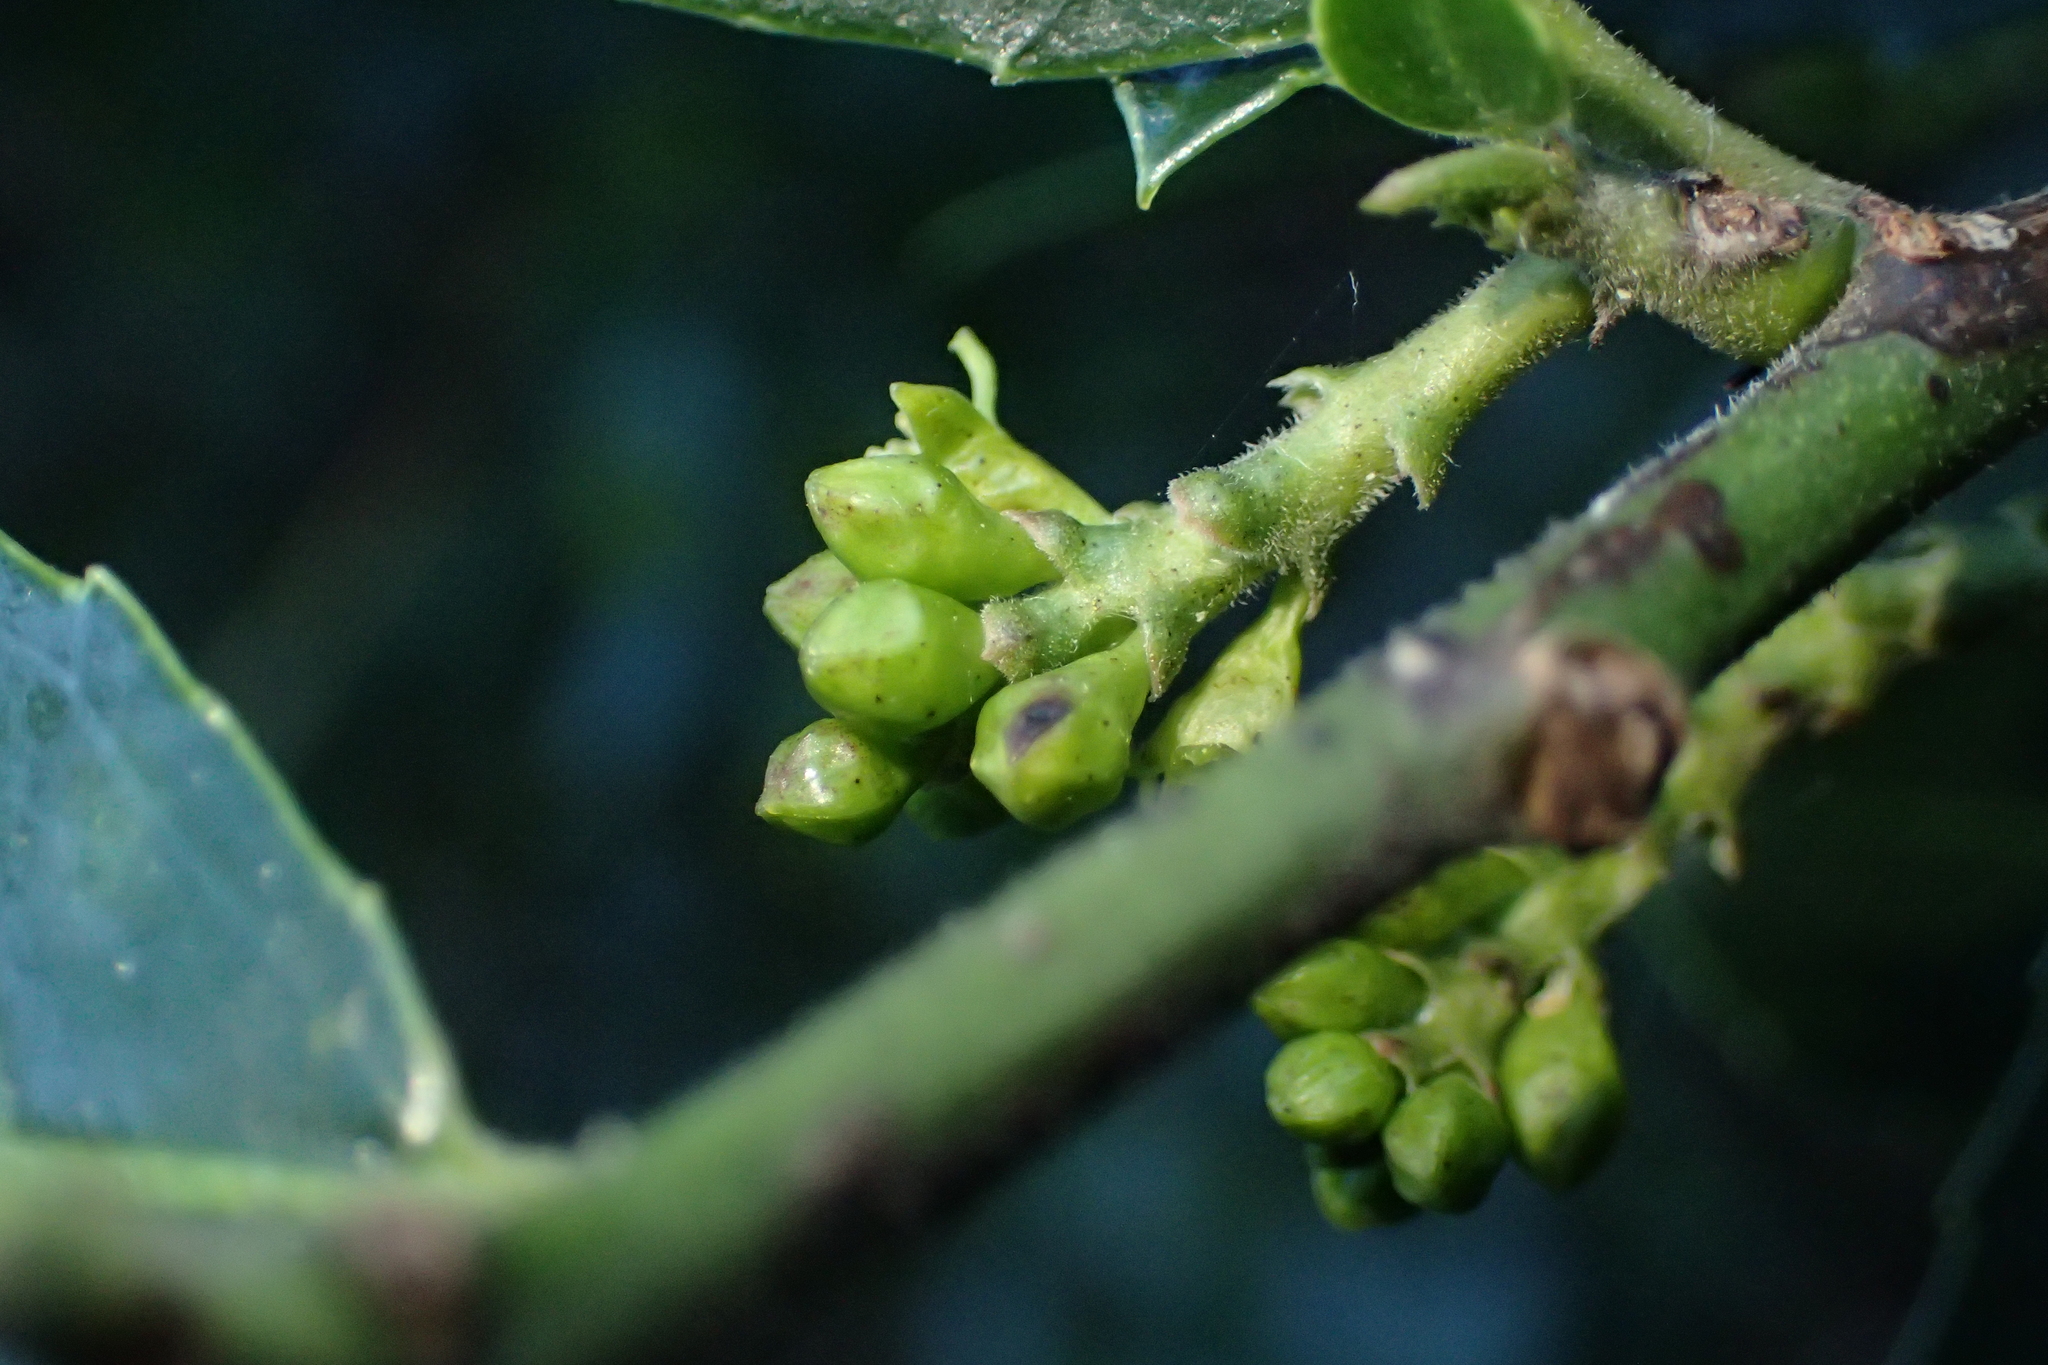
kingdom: Plantae
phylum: Tracheophyta
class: Magnoliopsida
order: Rosales
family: Rhamnaceae
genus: Rhamnus
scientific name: Rhamnus alaternus
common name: Mediterranean buckthorn
